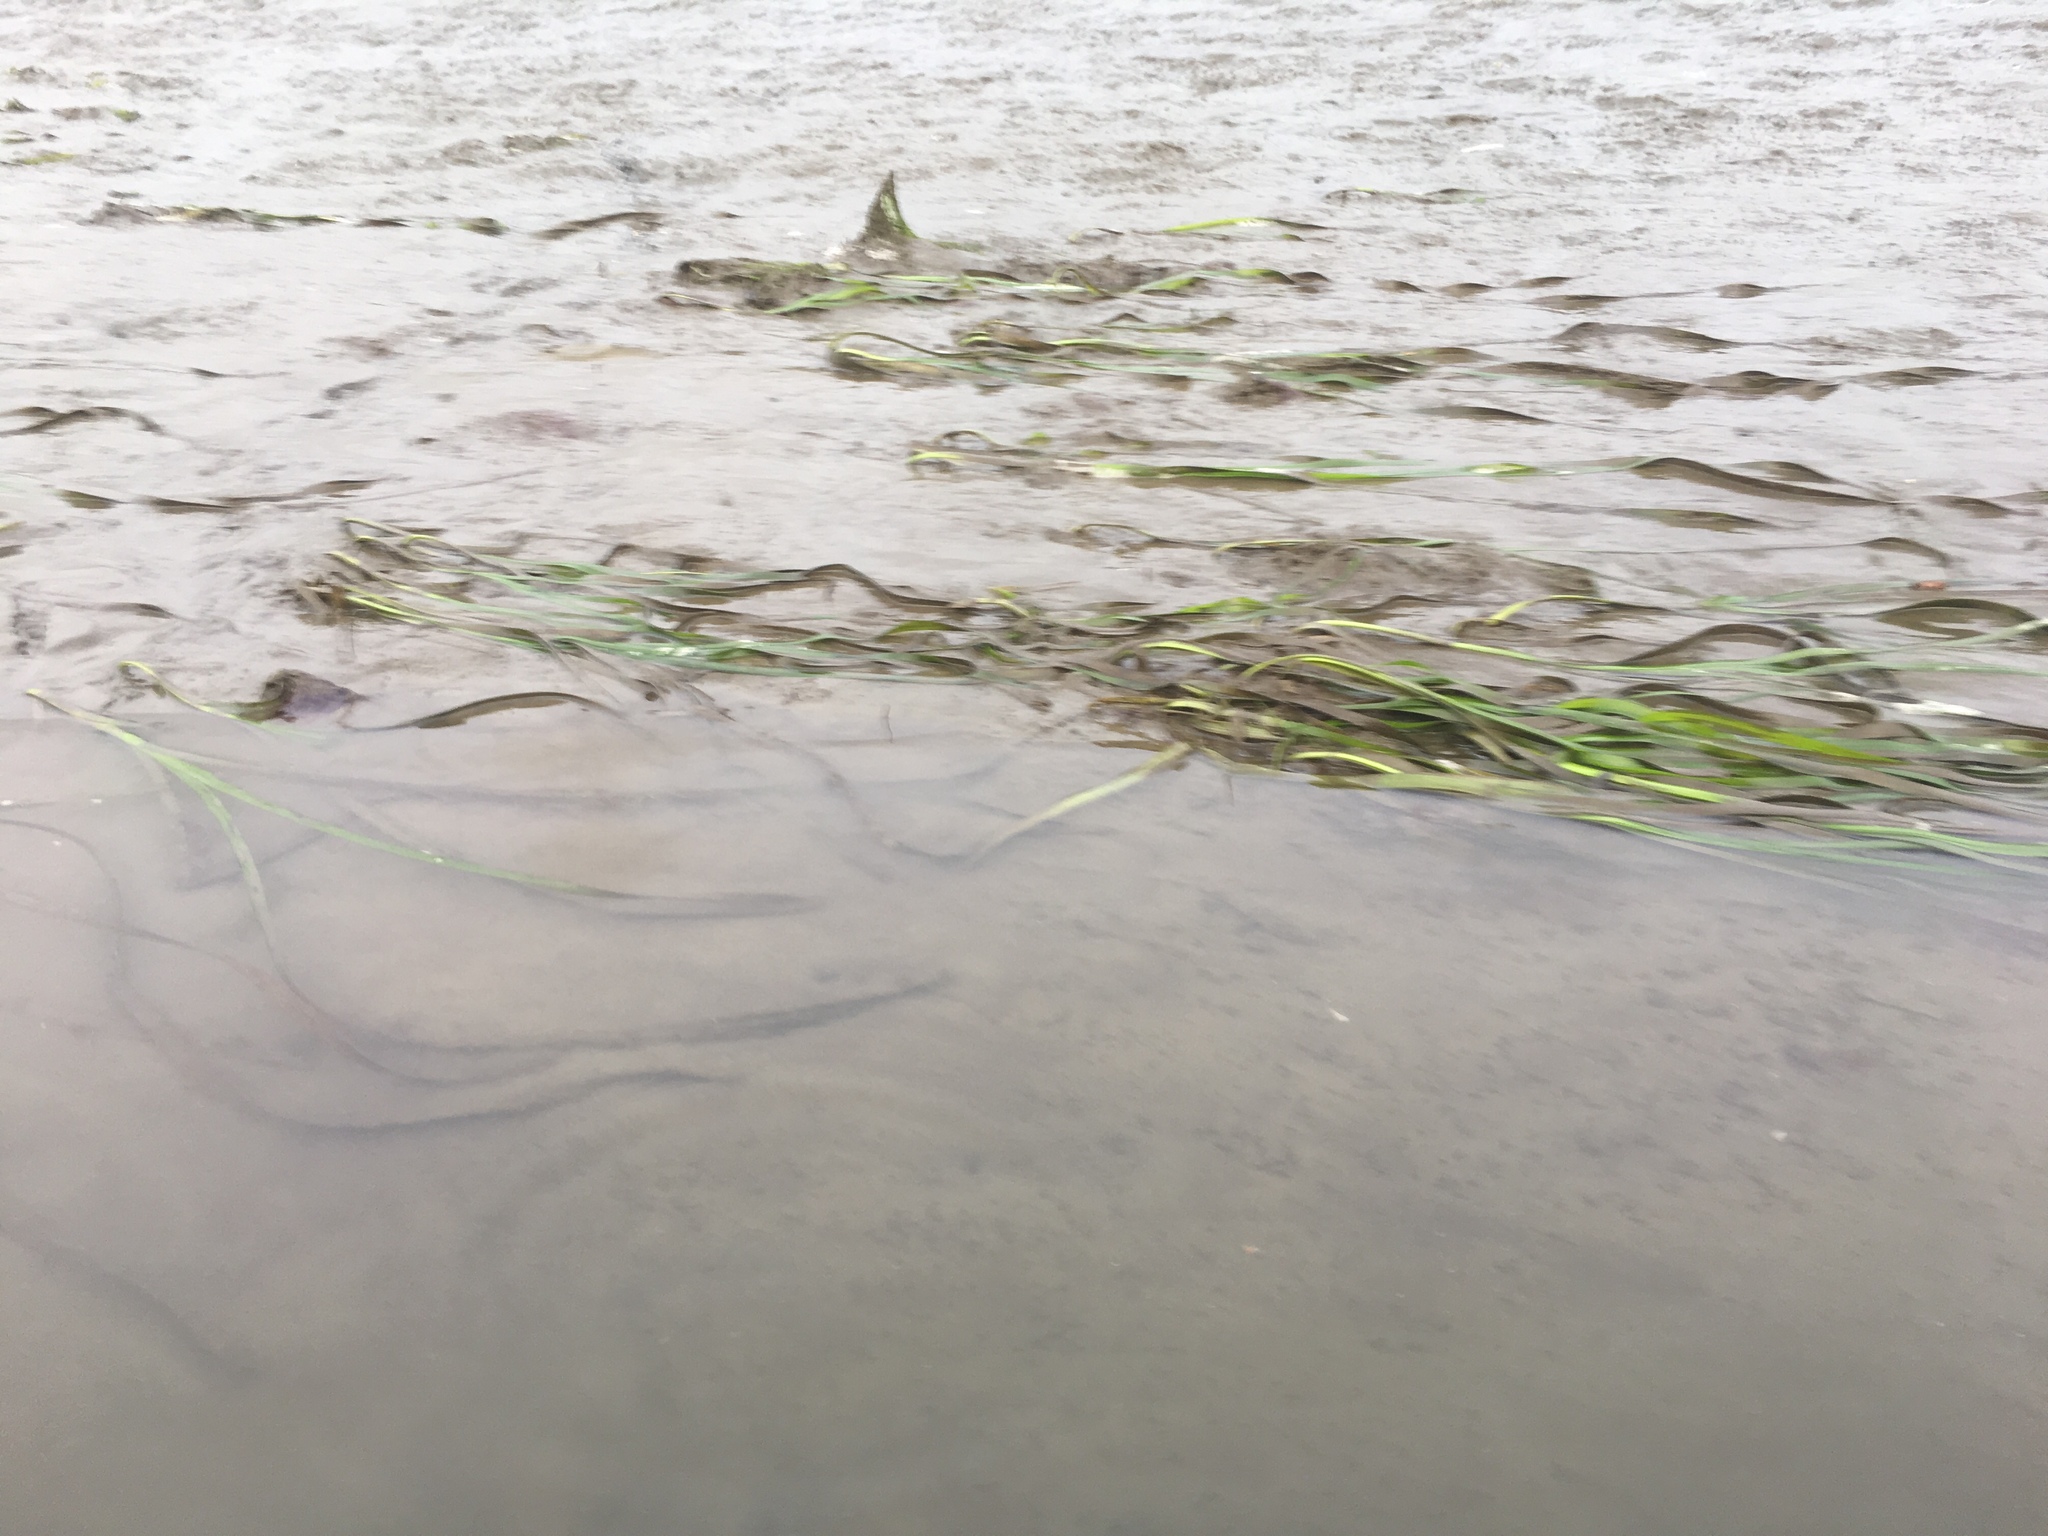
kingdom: Plantae
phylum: Tracheophyta
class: Liliopsida
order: Alismatales
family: Zosteraceae
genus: Zostera
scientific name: Zostera marina
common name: Eelgrass
